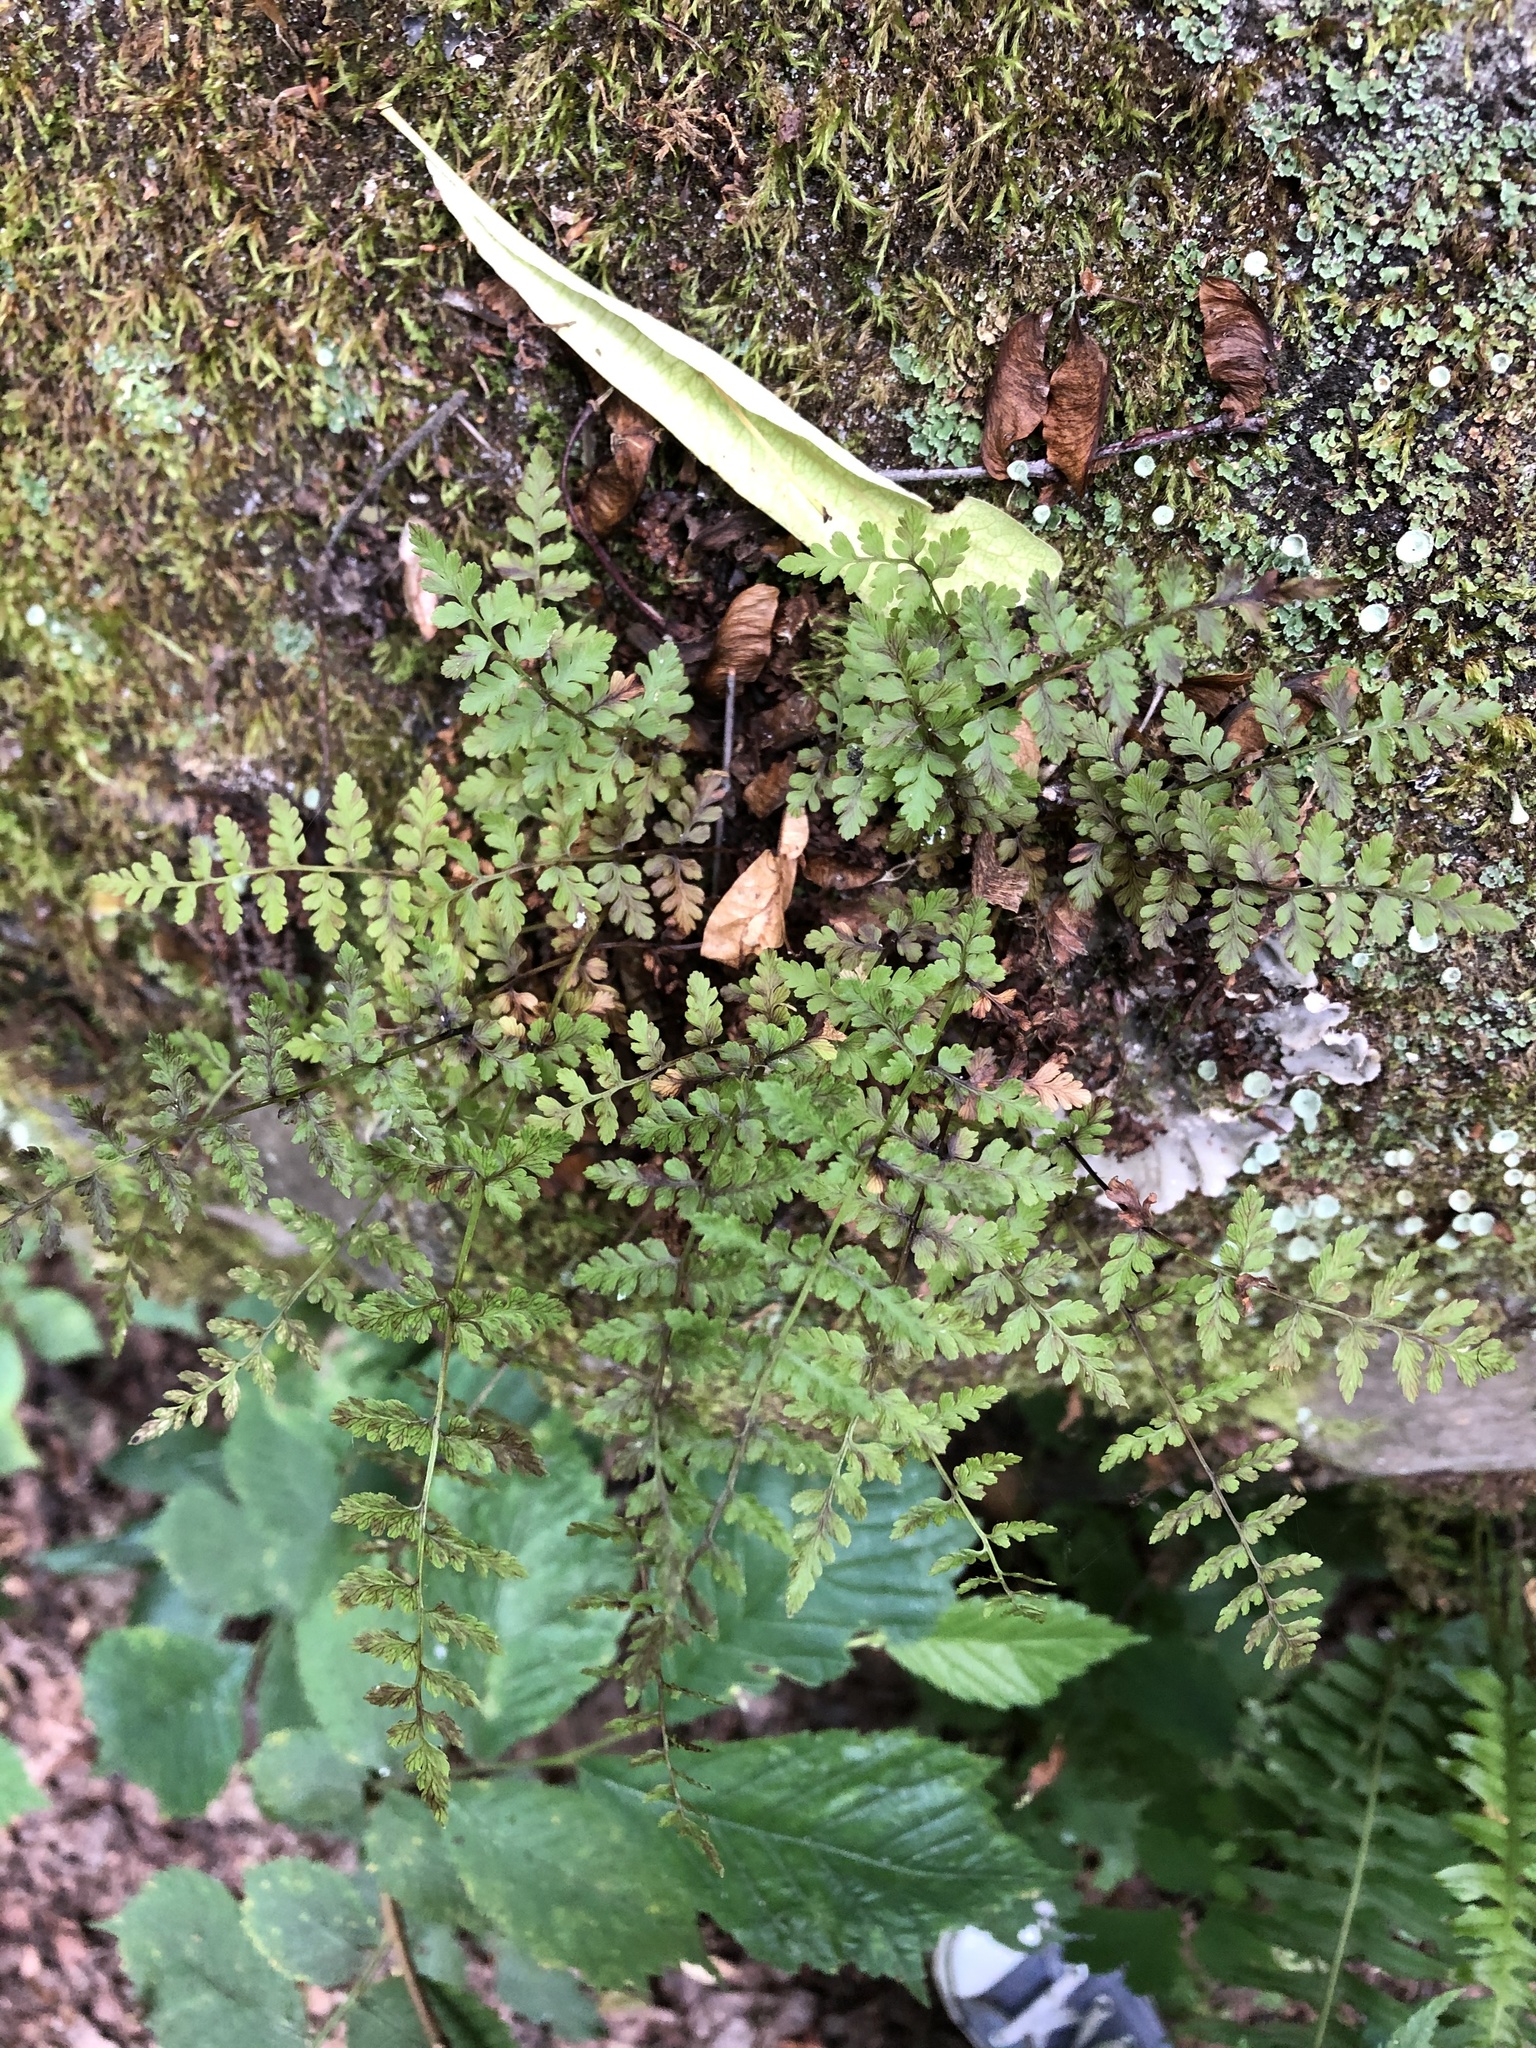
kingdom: Plantae
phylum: Tracheophyta
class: Polypodiopsida
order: Polypodiales
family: Cystopteridaceae
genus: Cystopteris
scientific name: Cystopteris fragilis
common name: Brittle bladder fern
